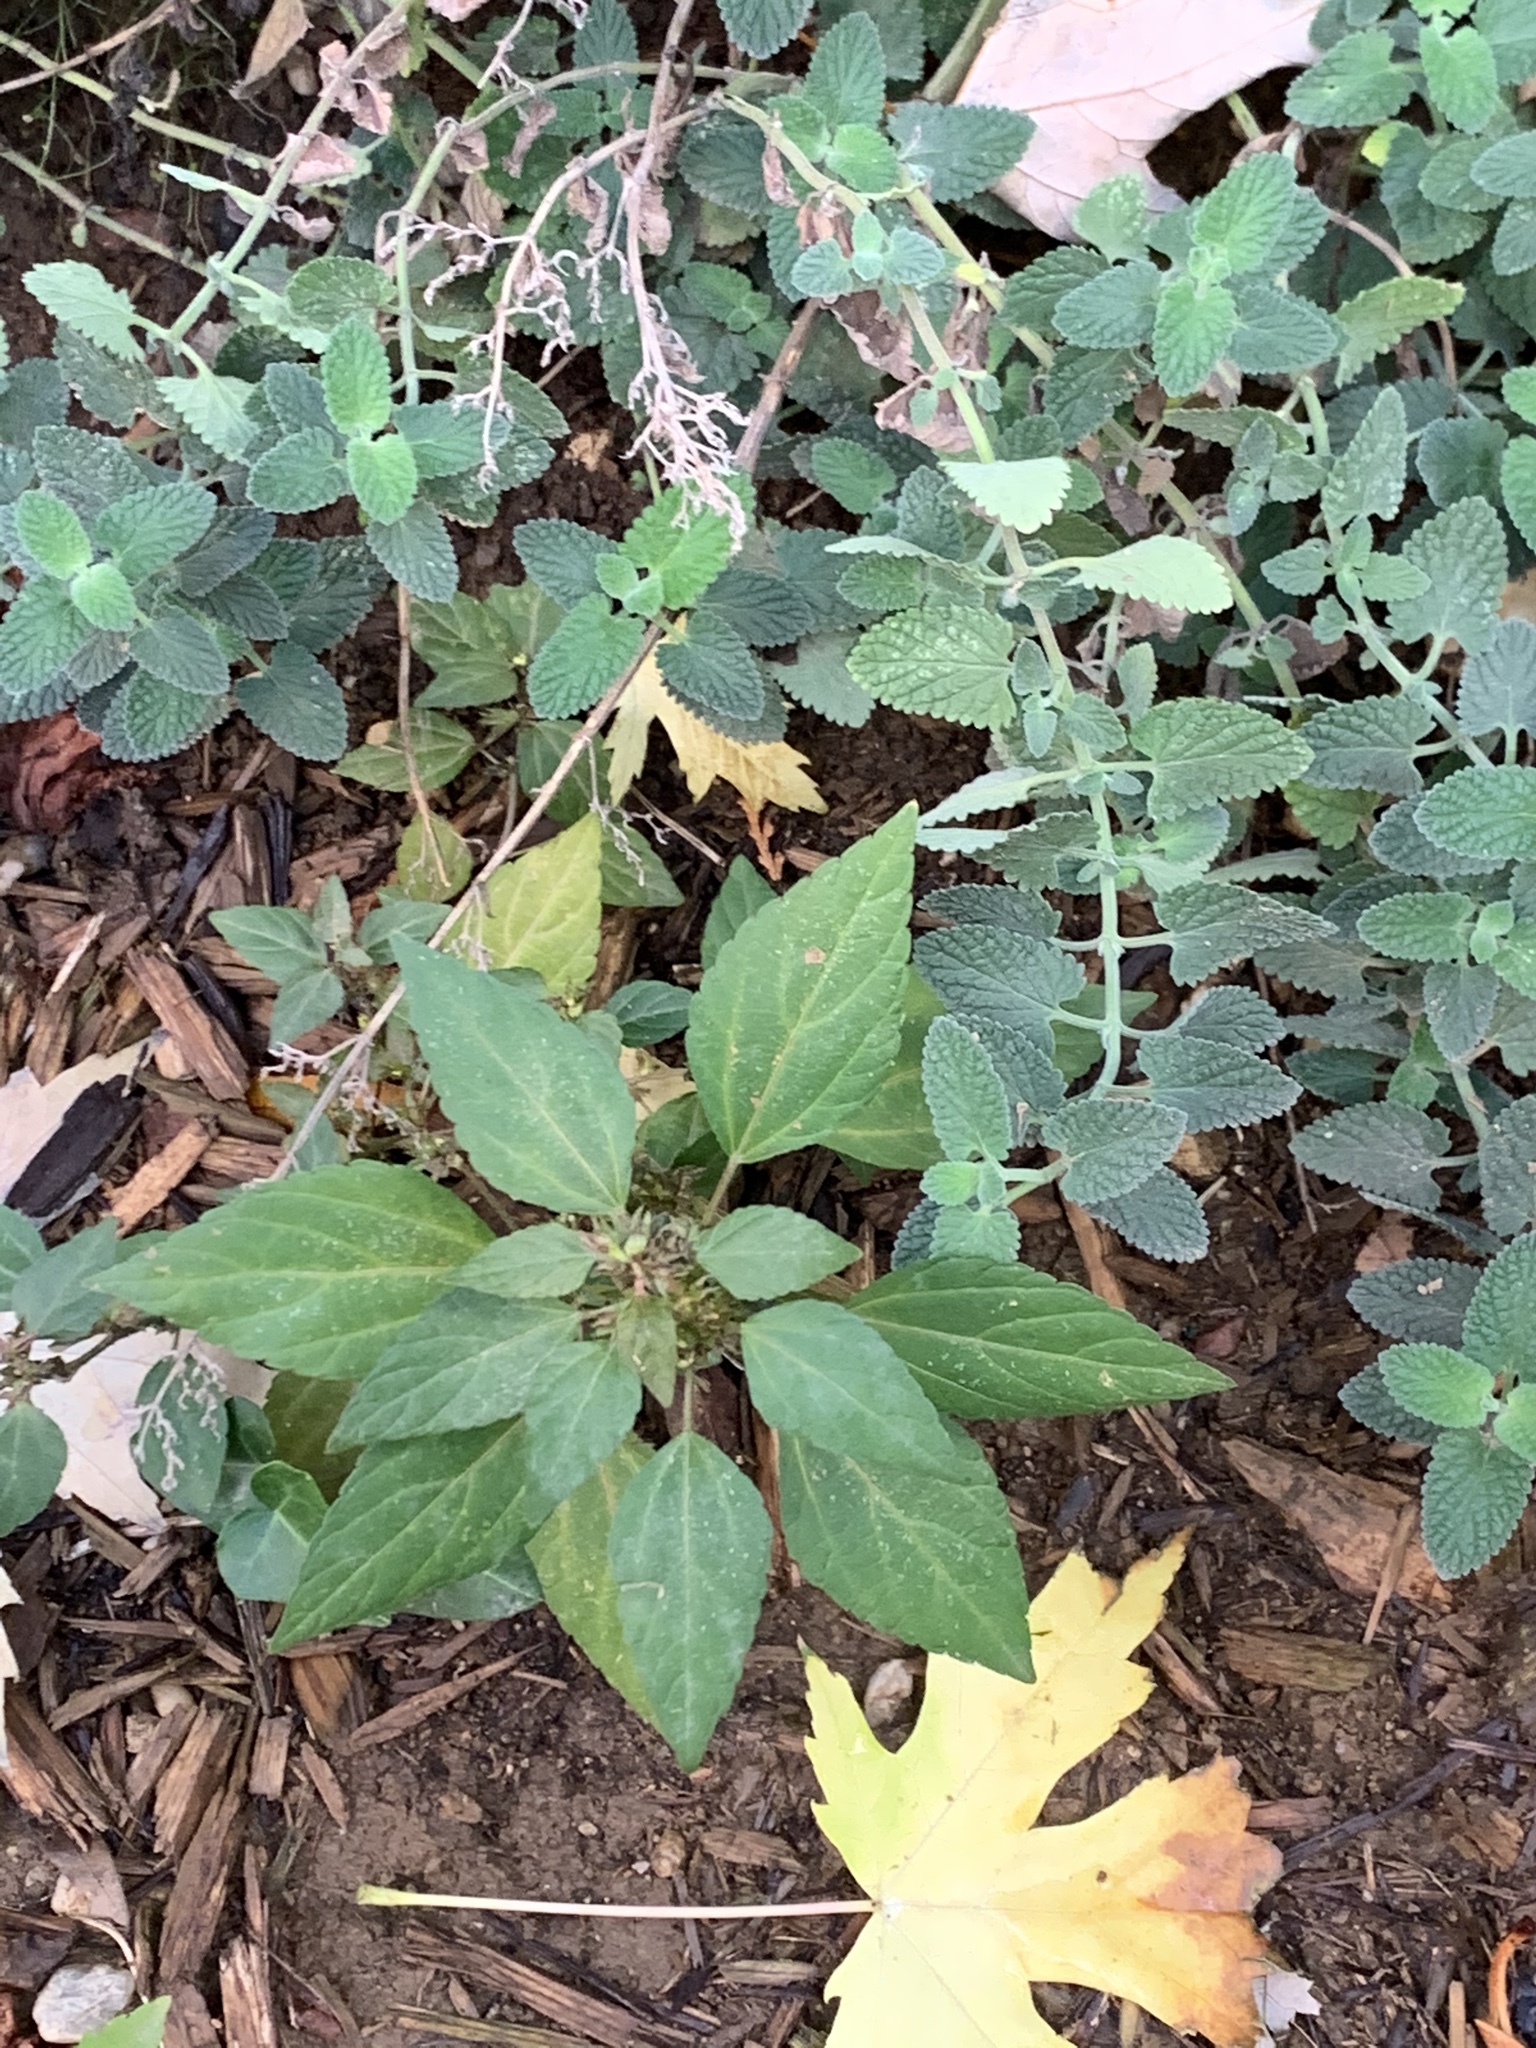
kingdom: Plantae
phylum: Tracheophyta
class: Magnoliopsida
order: Malpighiales
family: Euphorbiaceae
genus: Acalypha
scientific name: Acalypha rhomboidea
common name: Rhombic copperleaf
